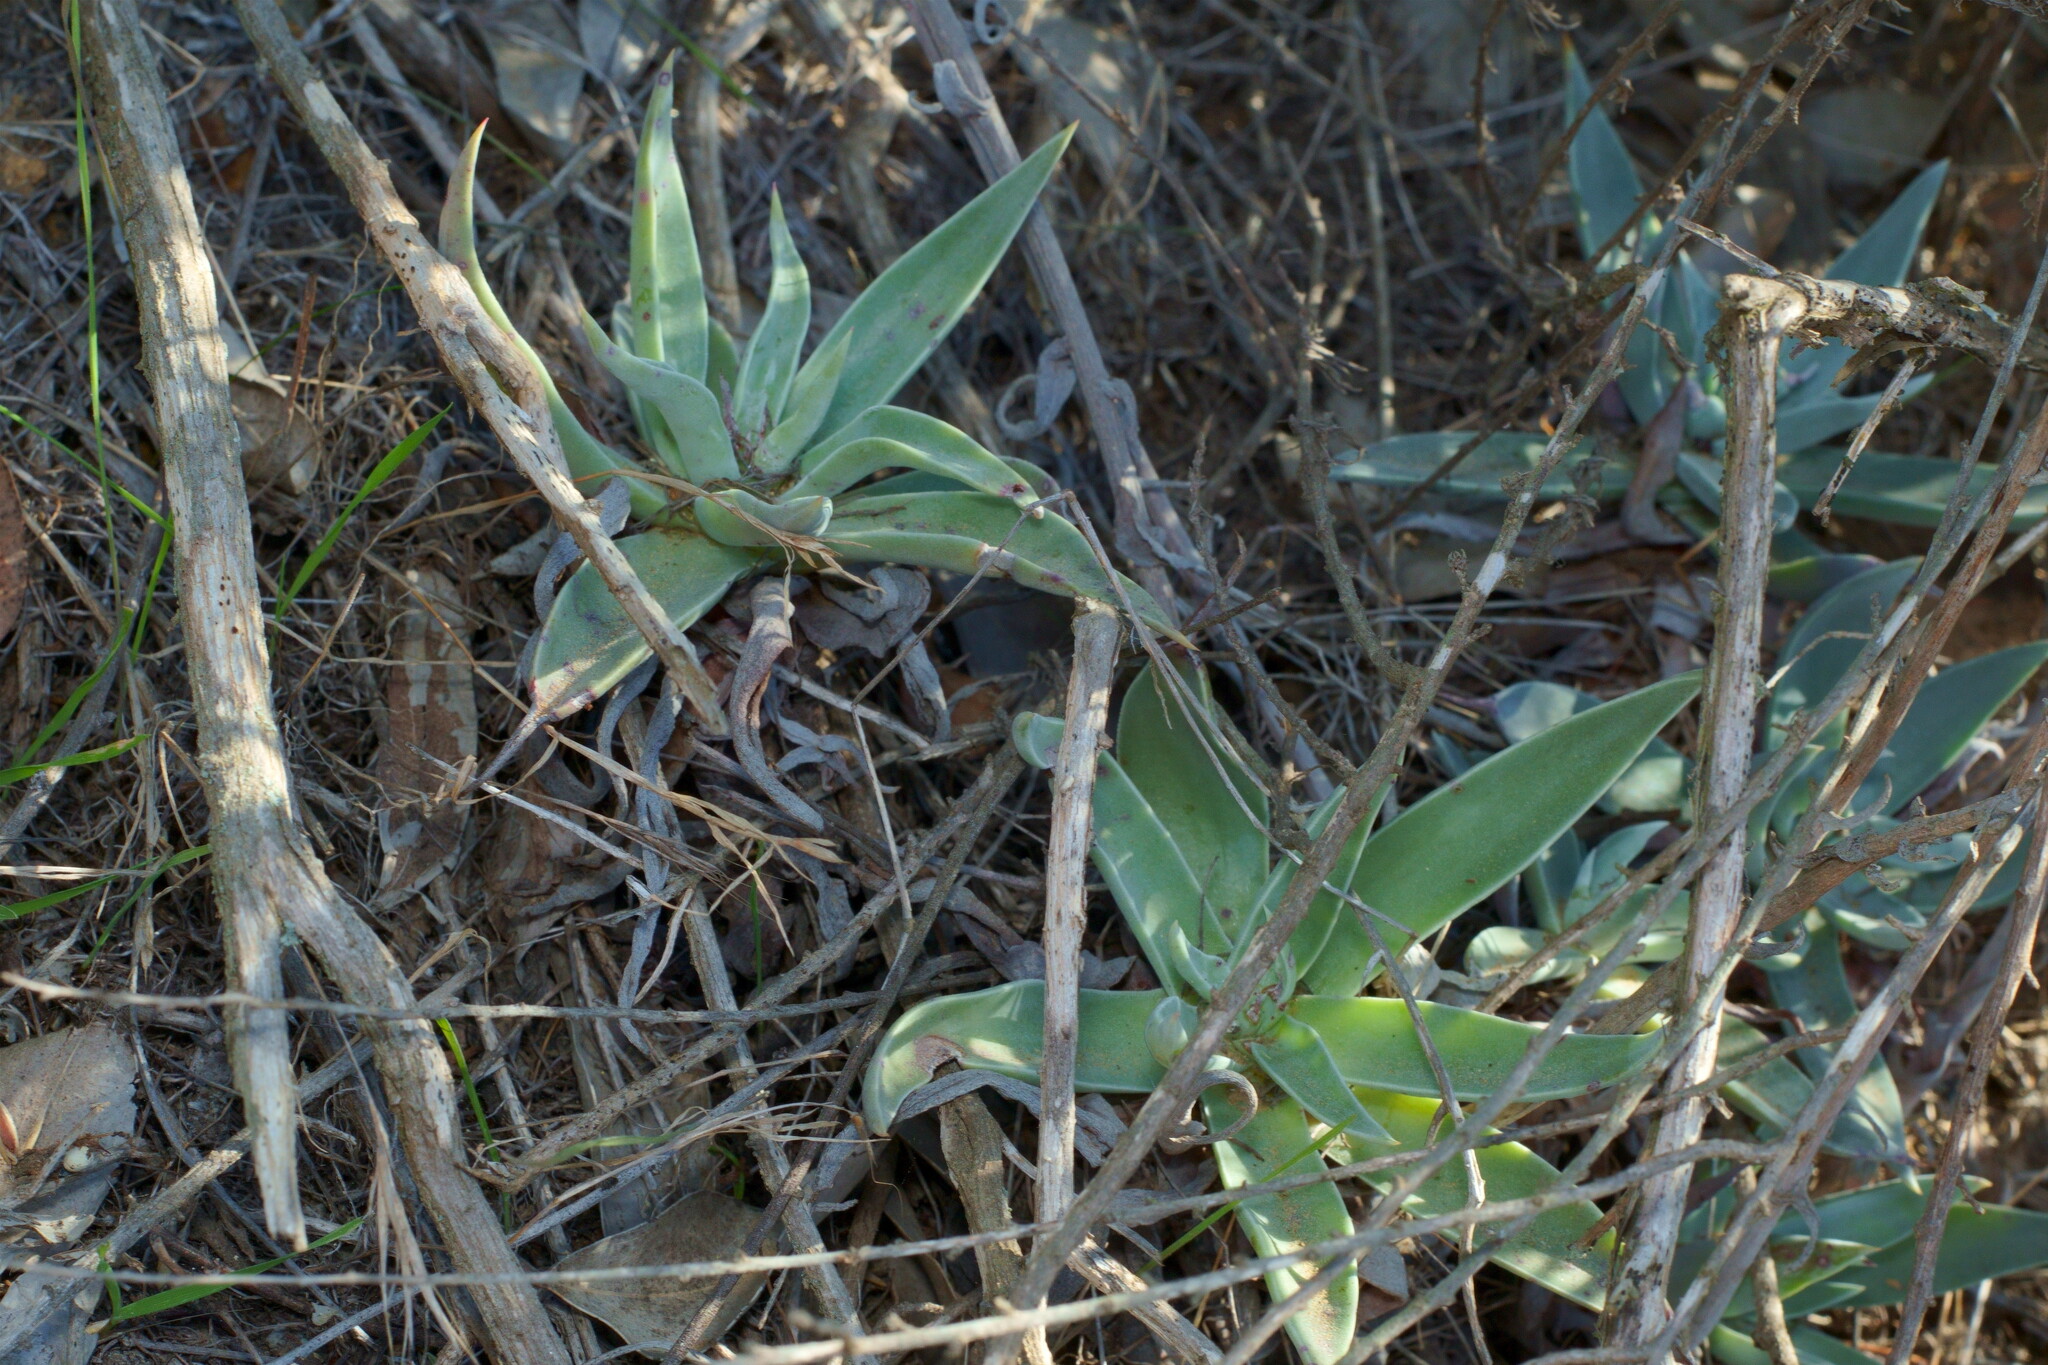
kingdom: Plantae
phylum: Tracheophyta
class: Magnoliopsida
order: Saxifragales
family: Crassulaceae
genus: Dudleya
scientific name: Dudleya lanceolata
